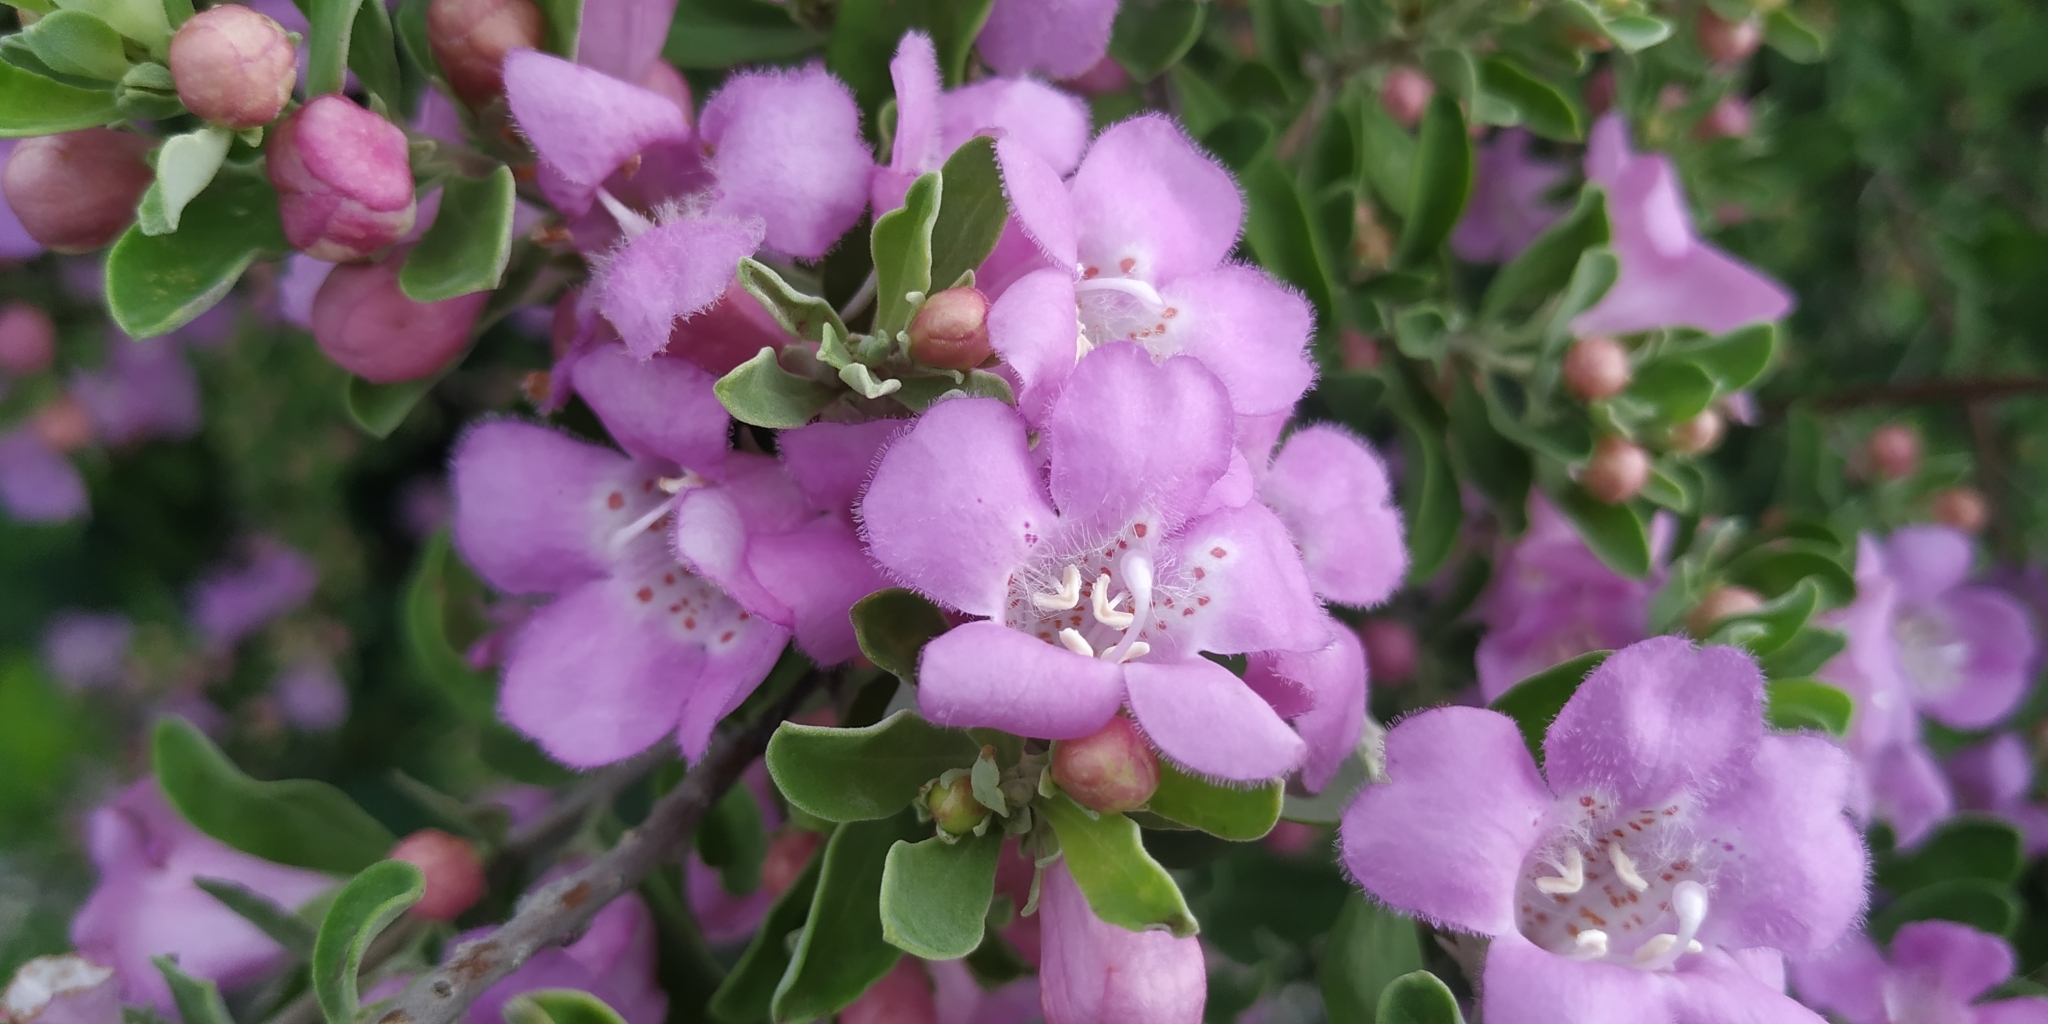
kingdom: Plantae
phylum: Tracheophyta
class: Magnoliopsida
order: Lamiales
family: Scrophulariaceae
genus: Leucophyllum
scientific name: Leucophyllum frutescens
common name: Texas silverleaf
